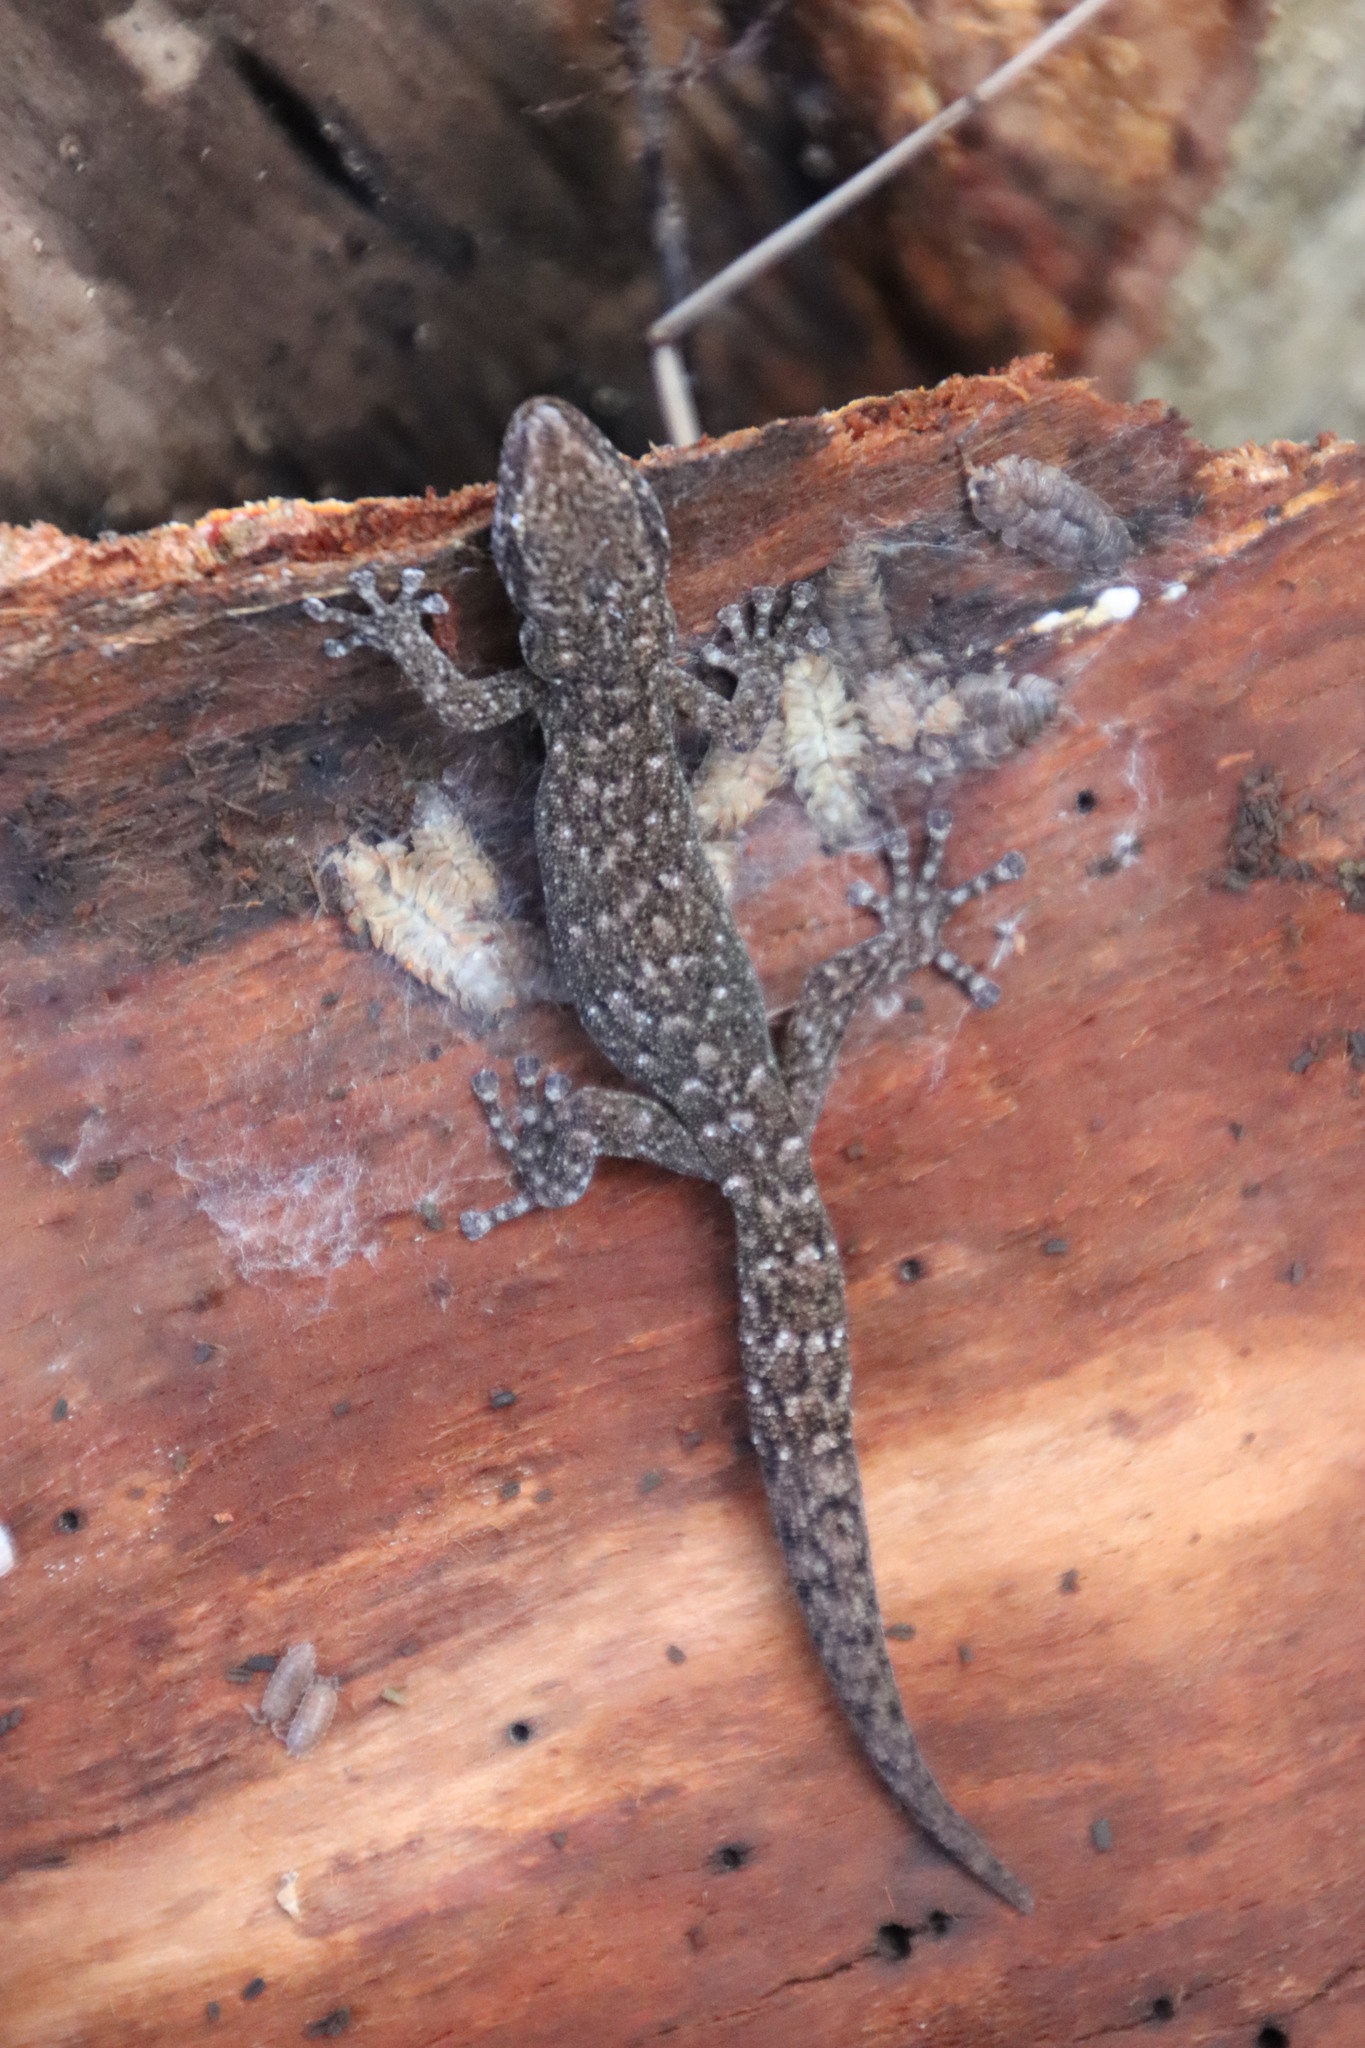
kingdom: Animalia
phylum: Chordata
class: Squamata
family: Gekkonidae
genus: Afrogecko
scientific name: Afrogecko porphyreus
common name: Marbled leaf-toed gecko
